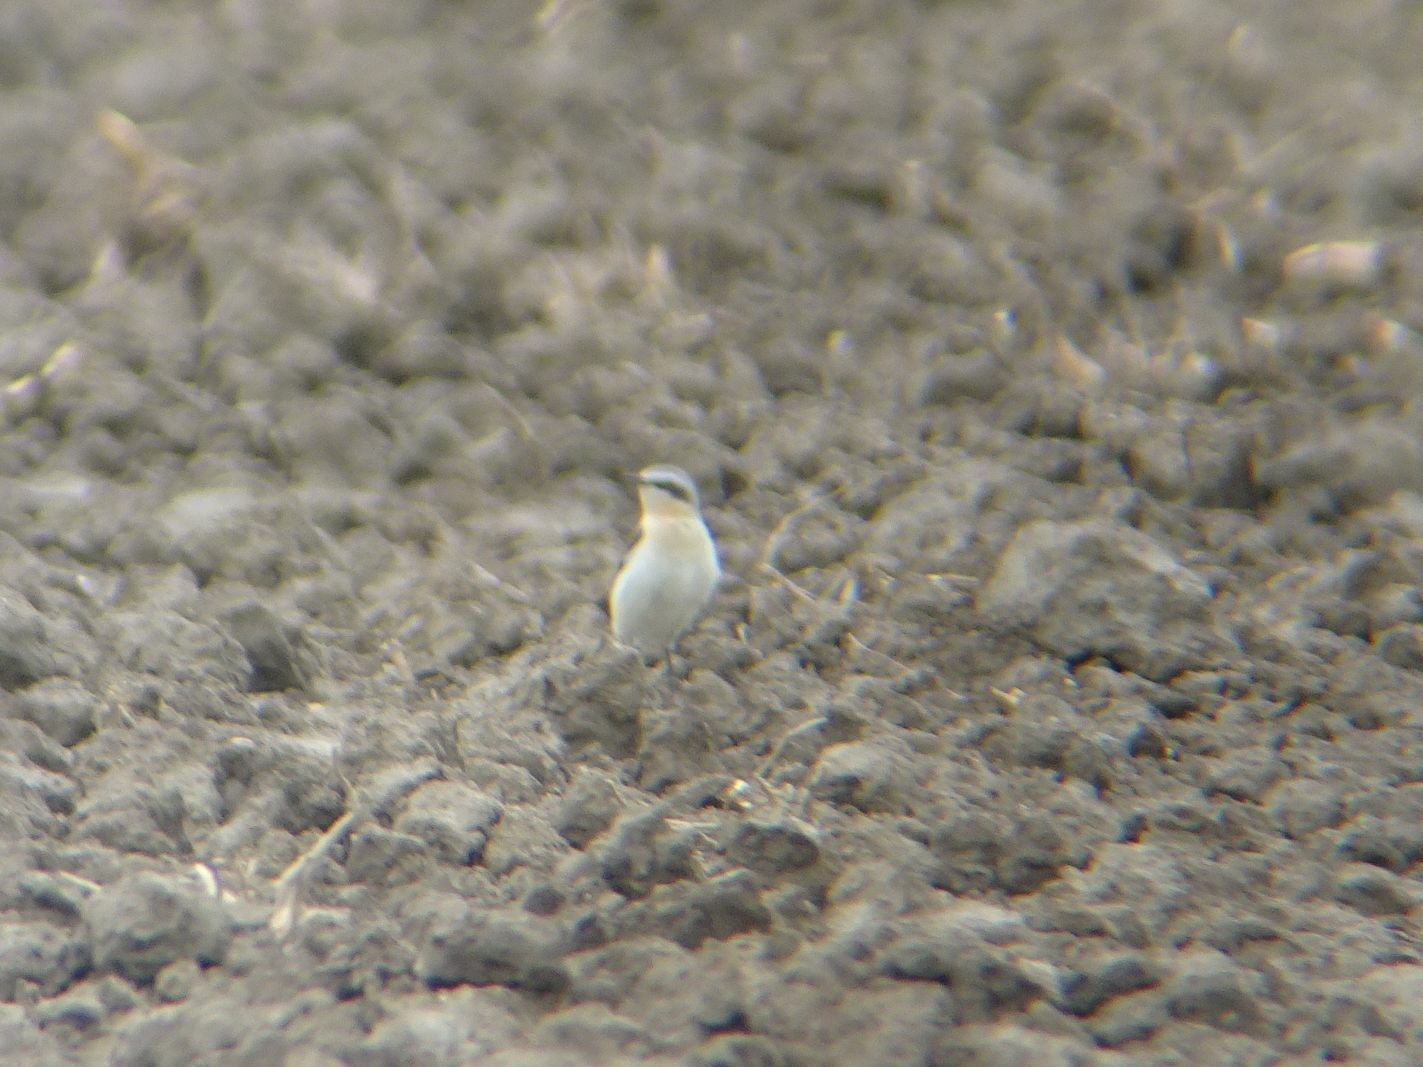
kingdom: Animalia
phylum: Chordata
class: Aves
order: Passeriformes
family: Muscicapidae
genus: Oenanthe
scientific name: Oenanthe oenanthe
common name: Northern wheatear
